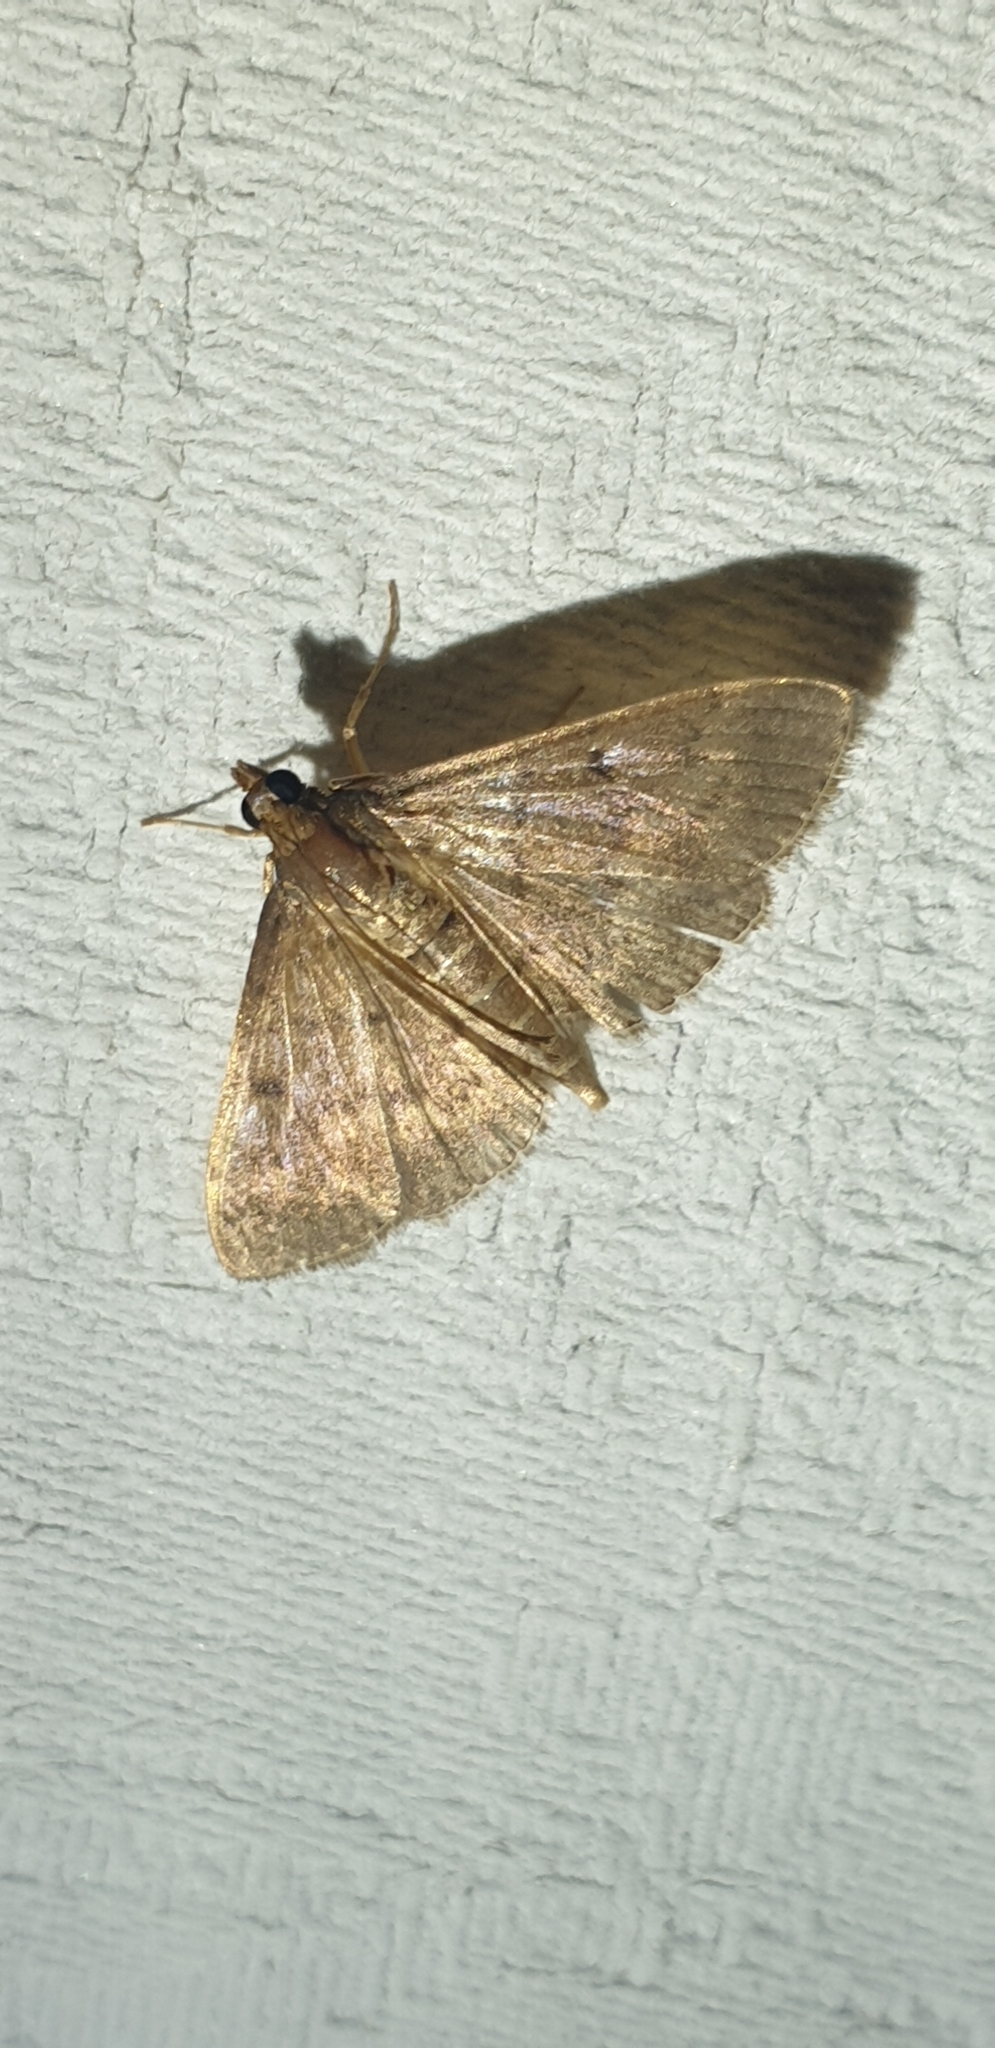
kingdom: Animalia
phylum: Arthropoda
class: Insecta
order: Lepidoptera
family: Crambidae
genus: Herpetogramma
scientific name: Herpetogramma licarsisalis
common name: Grass webworm
